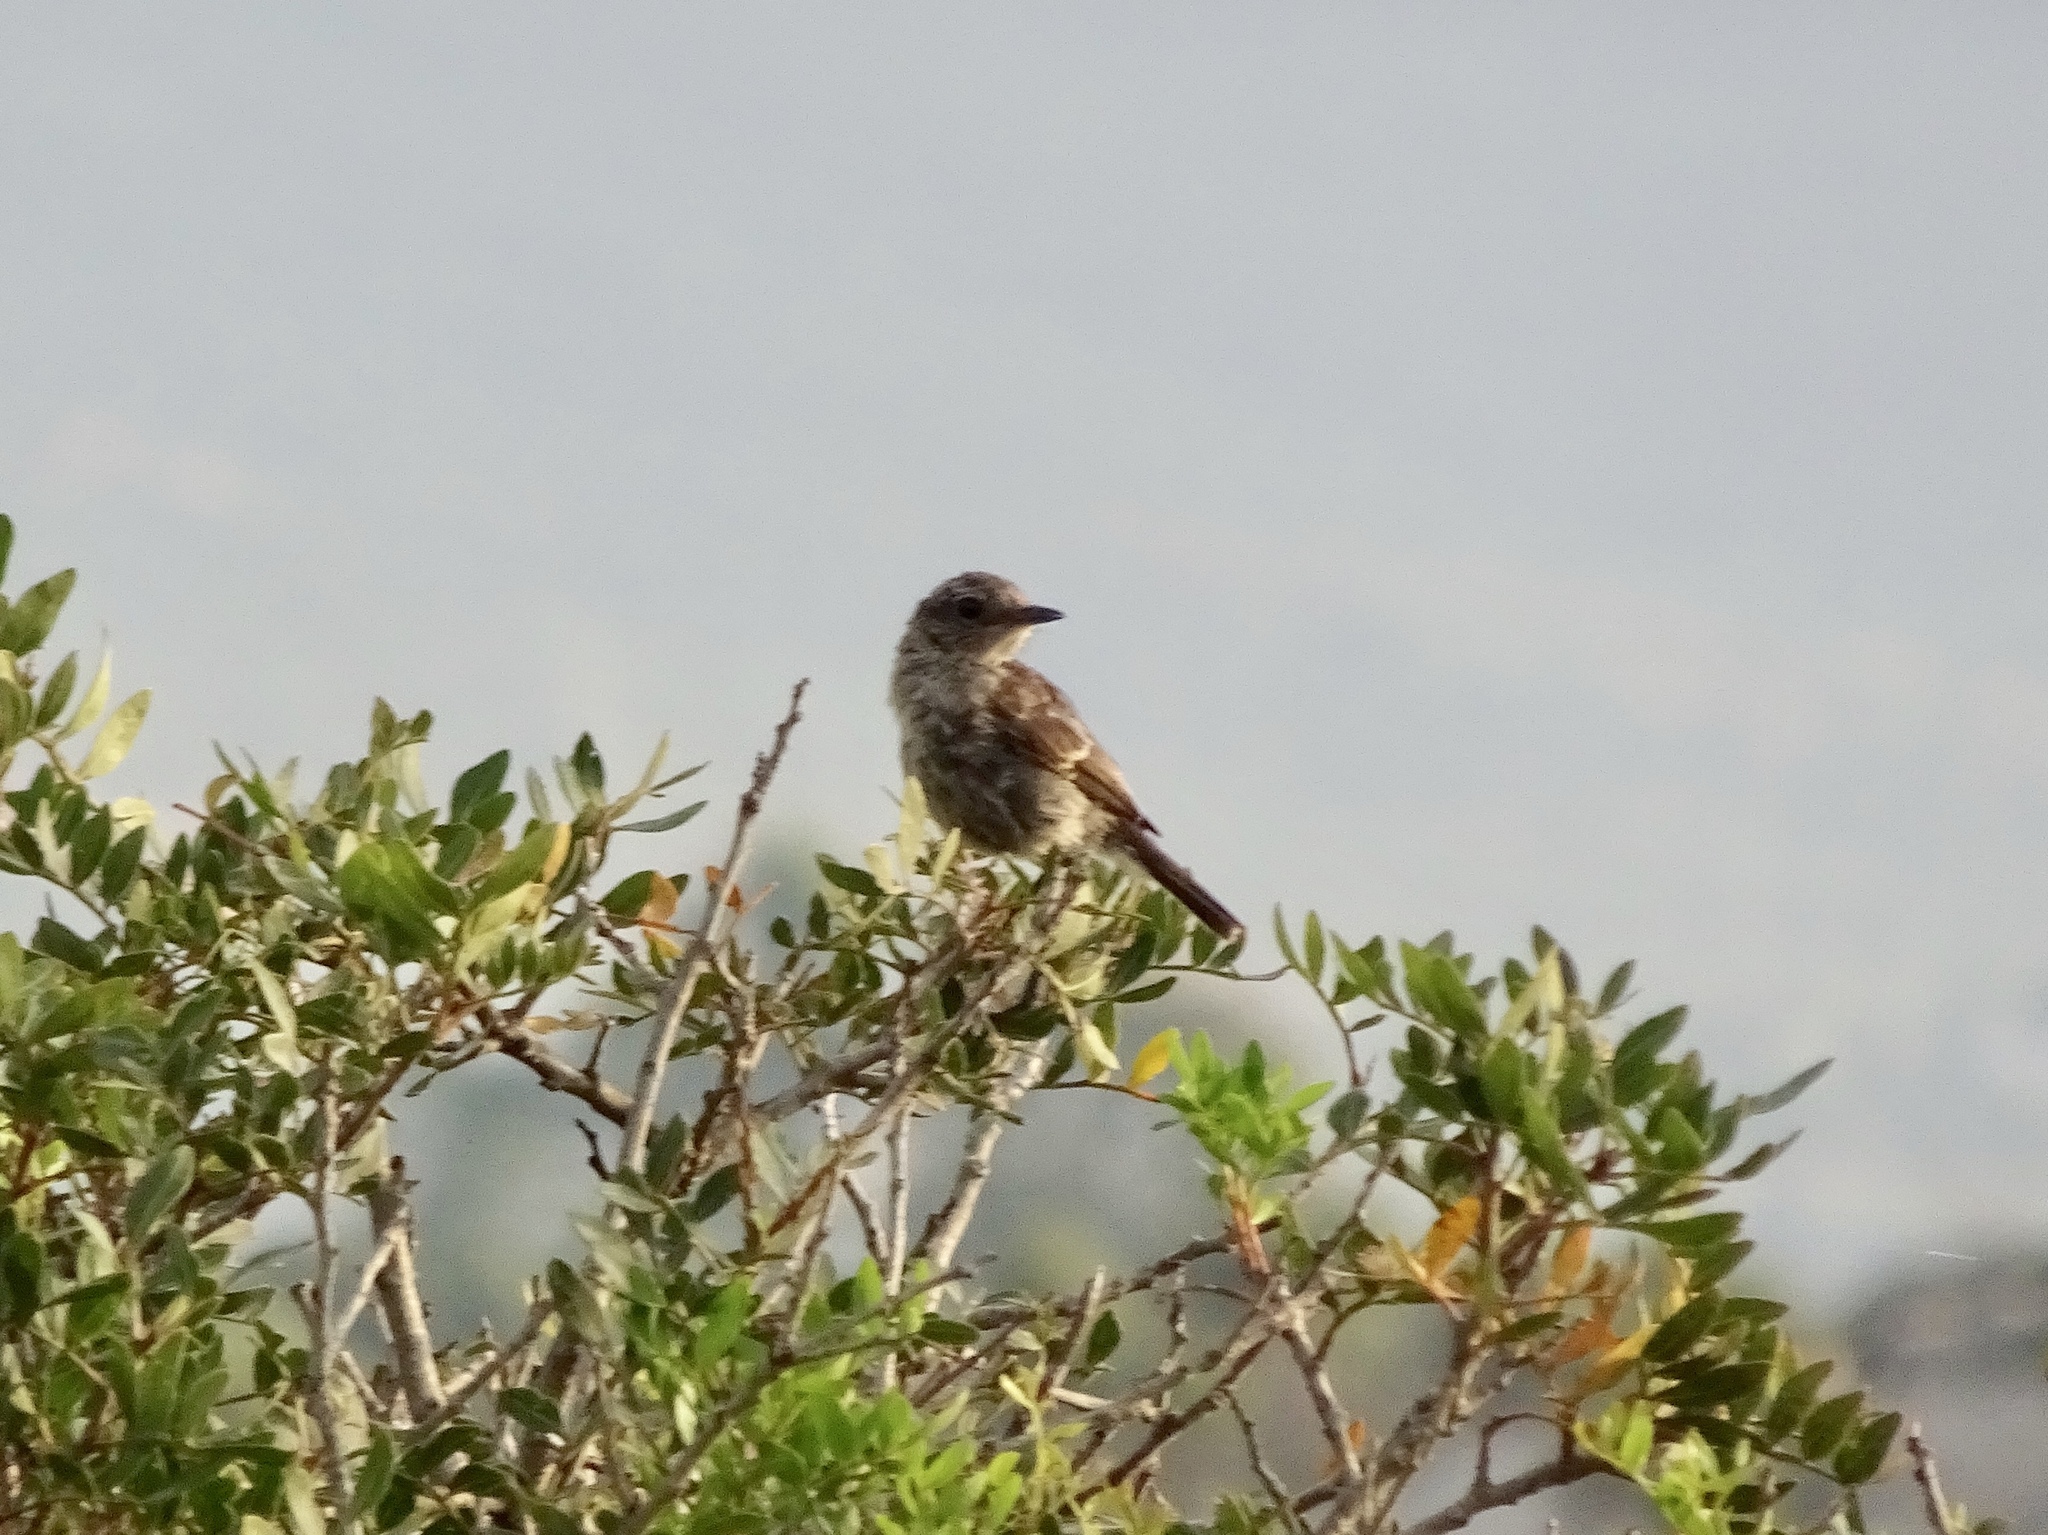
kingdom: Animalia
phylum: Chordata
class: Aves
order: Passeriformes
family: Muscicapidae
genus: Saxicola
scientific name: Saxicola rubicola
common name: European stonechat
